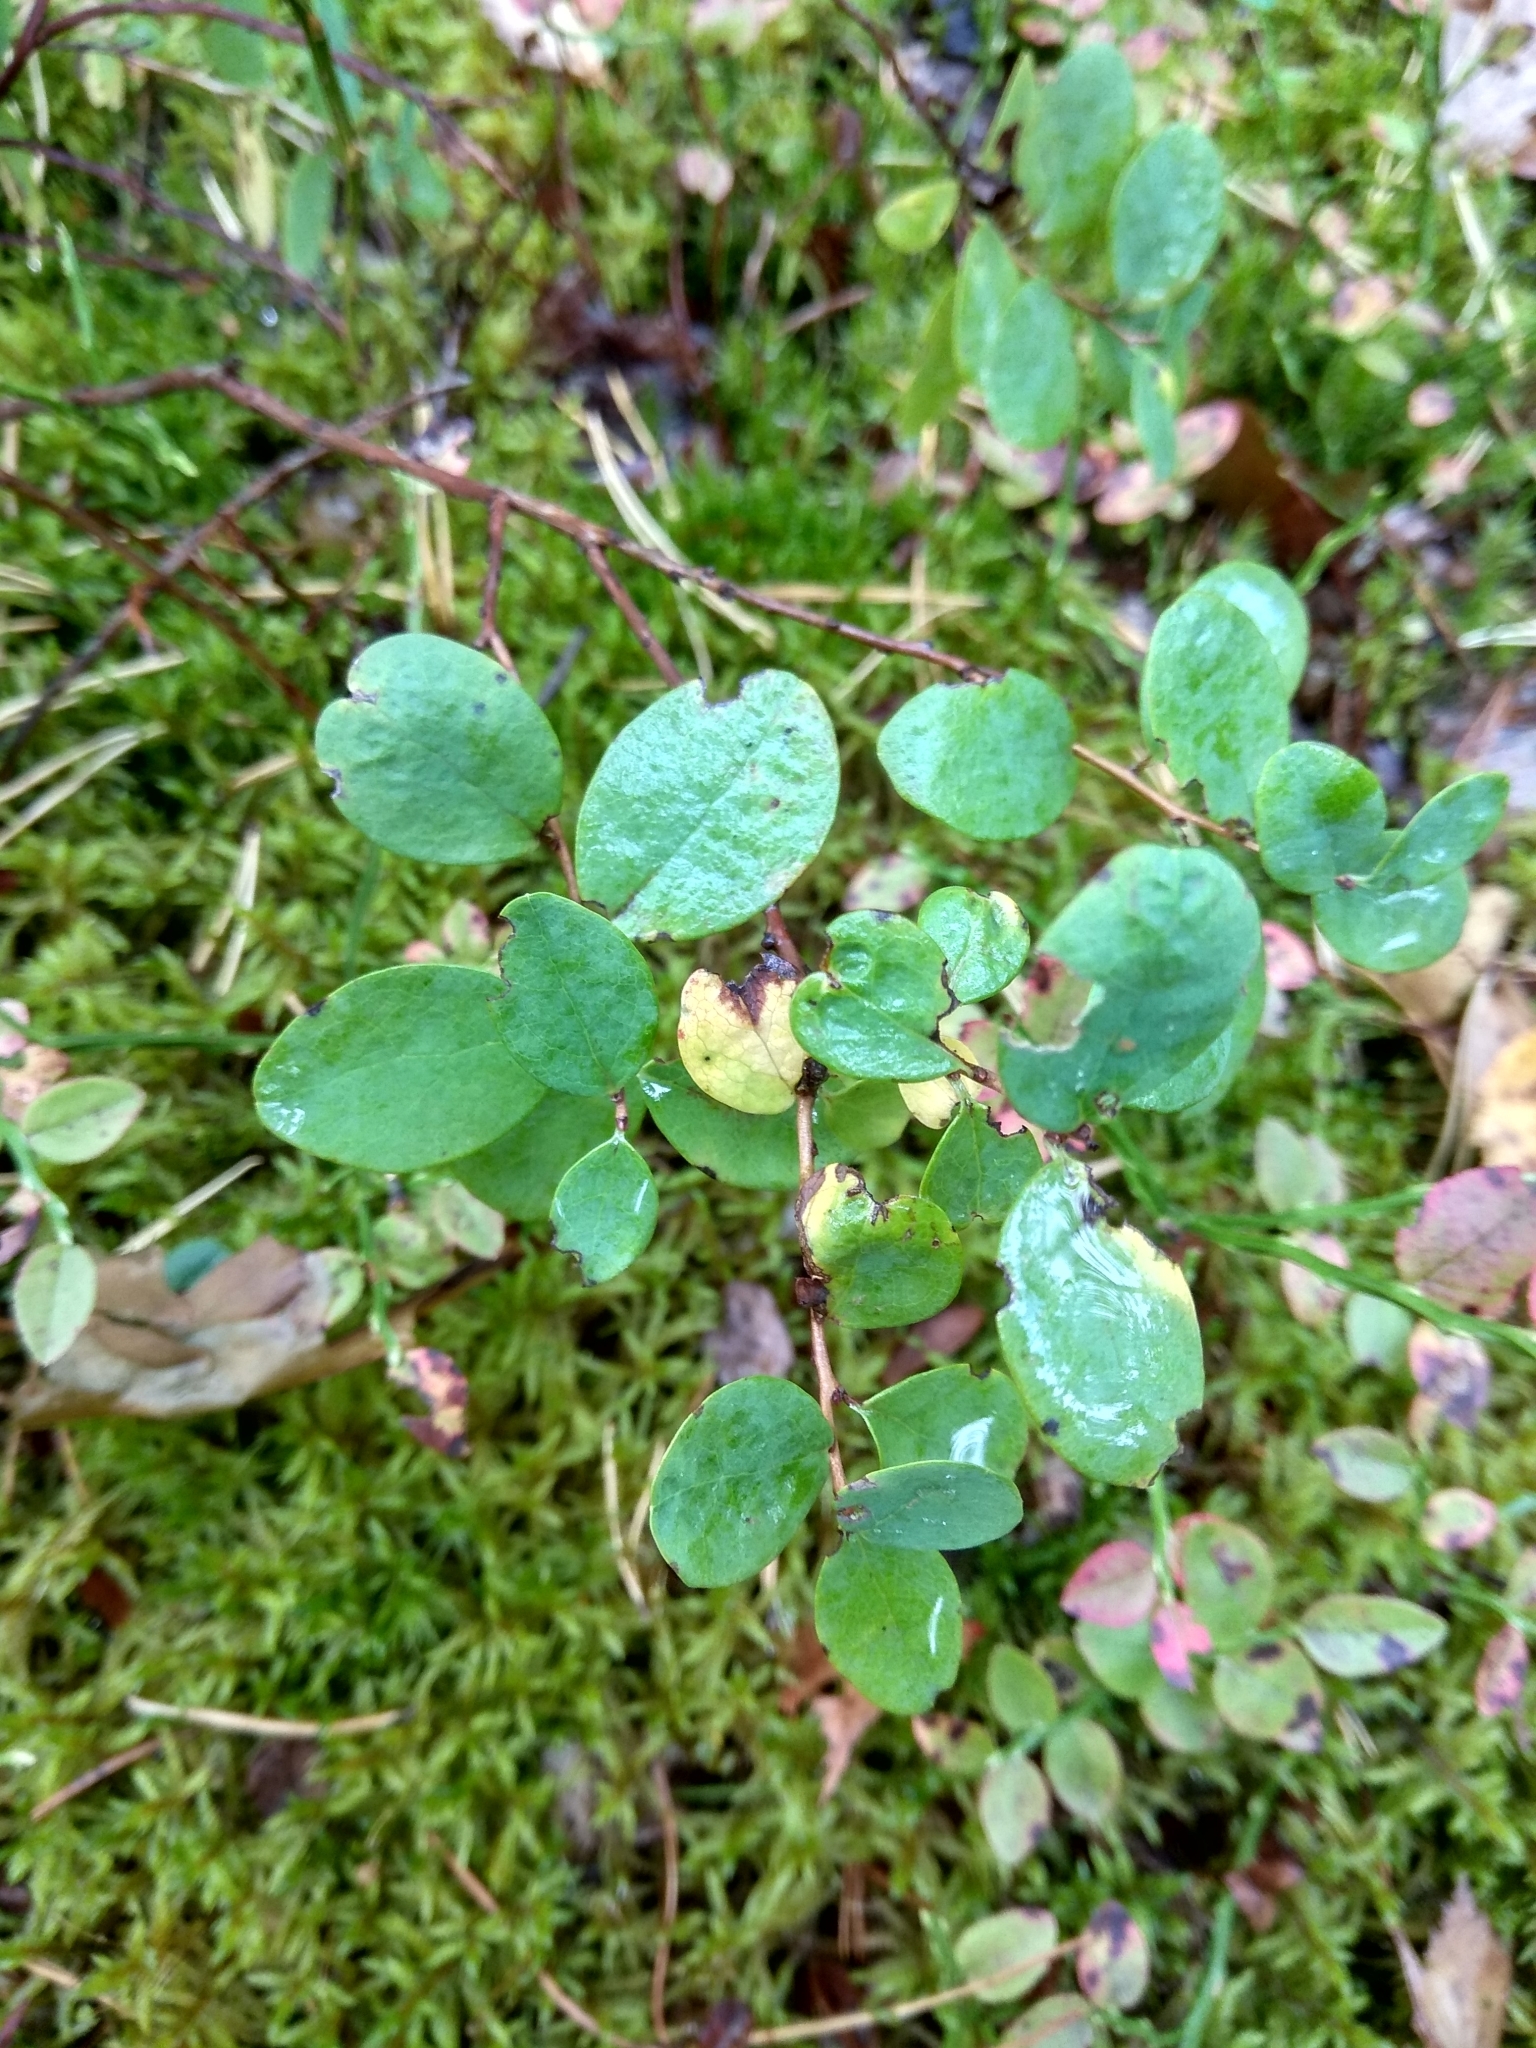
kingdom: Plantae
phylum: Tracheophyta
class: Magnoliopsida
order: Ericales
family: Ericaceae
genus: Vaccinium
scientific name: Vaccinium uliginosum
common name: Bog bilberry
